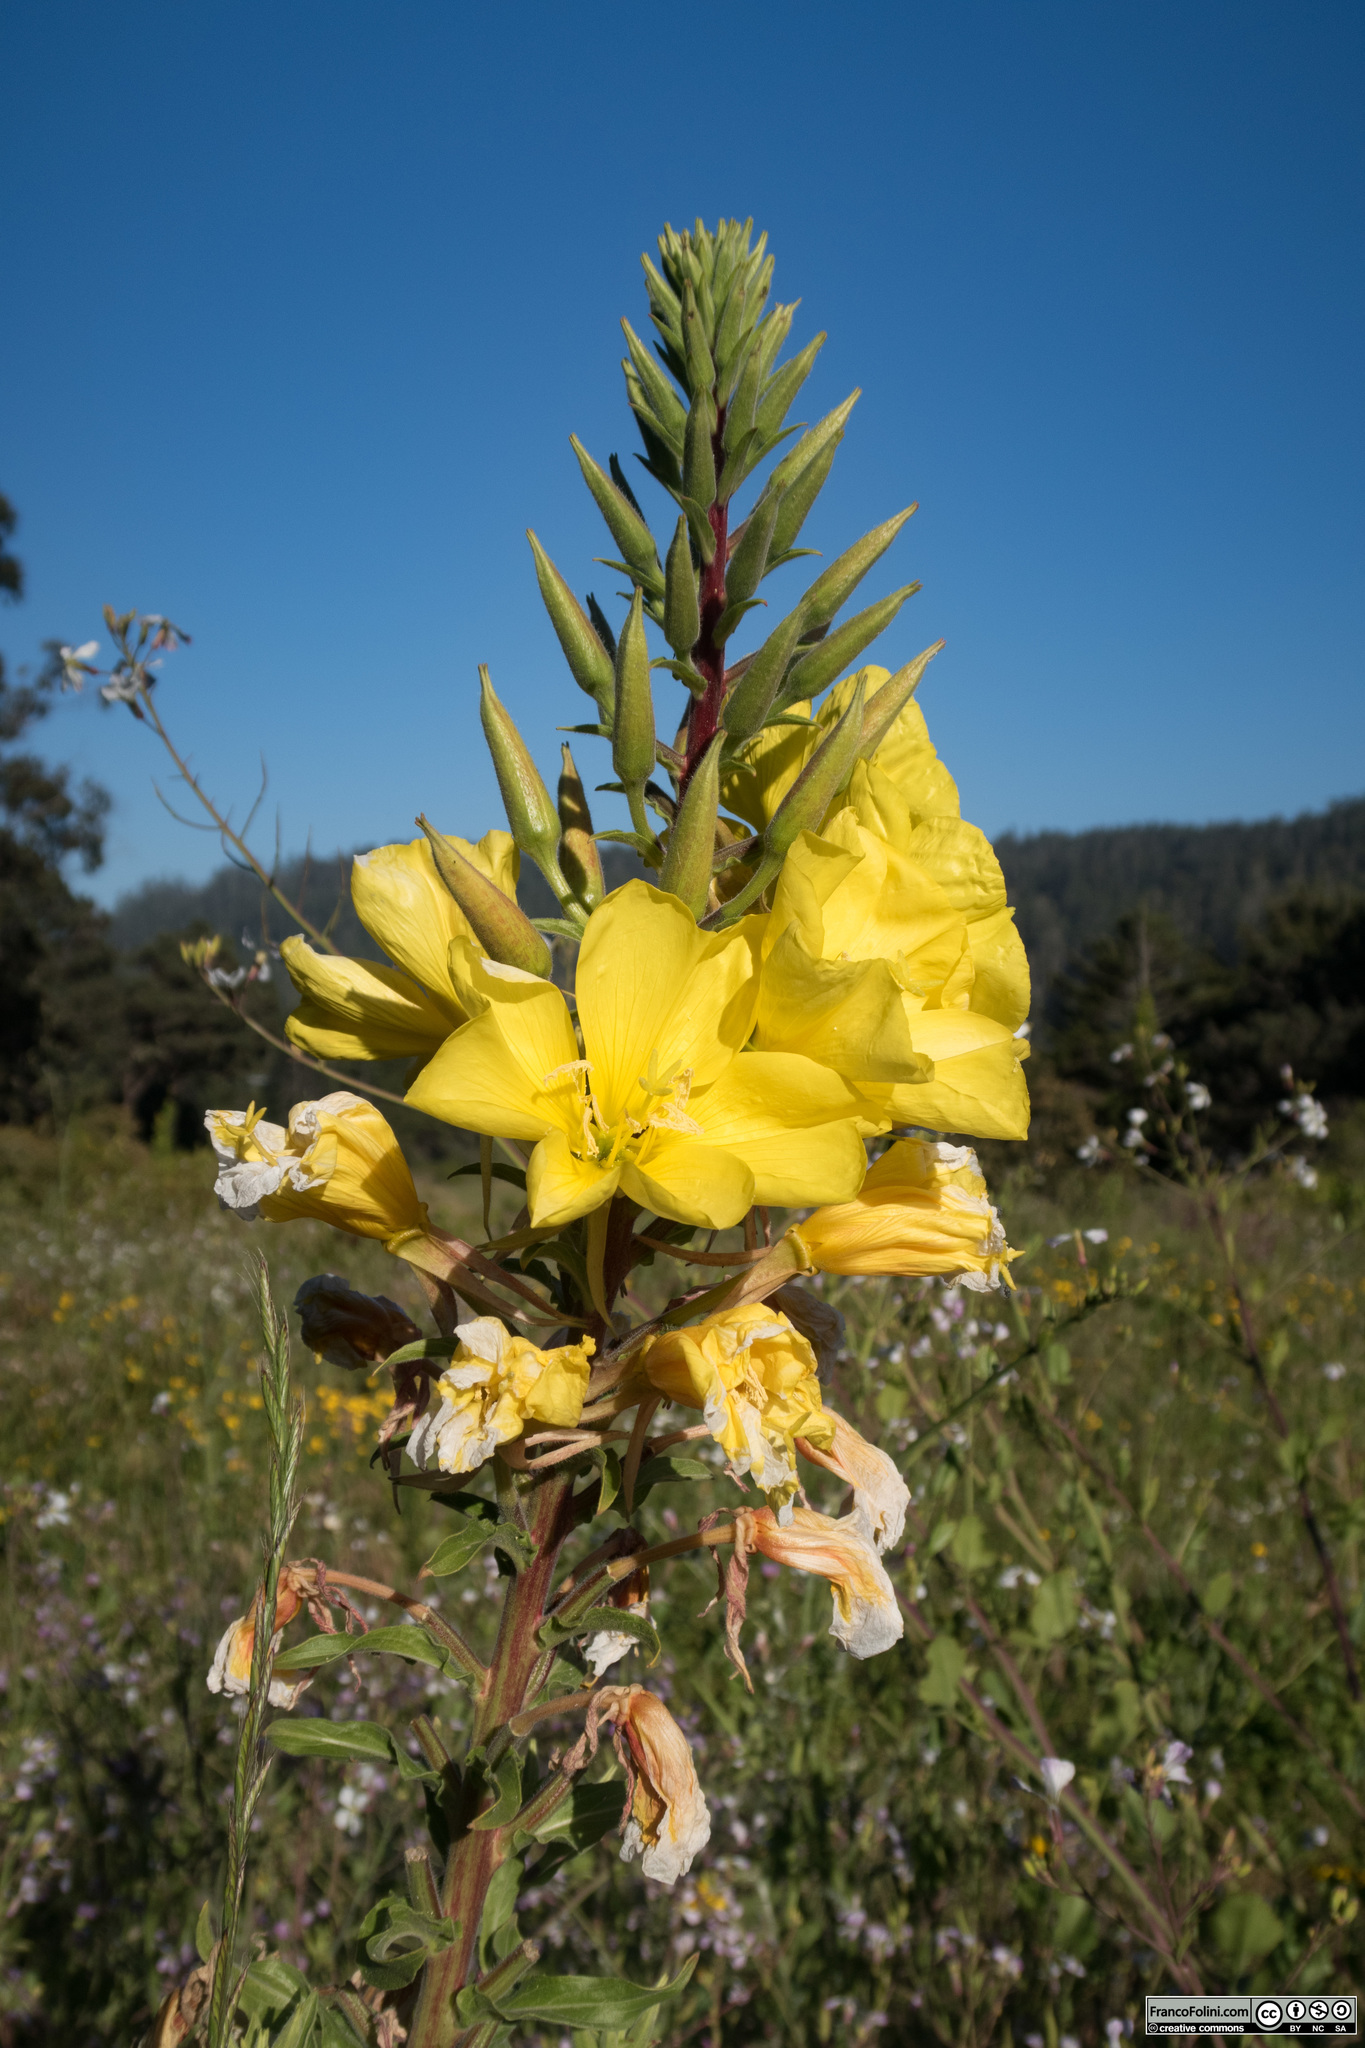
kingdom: Plantae
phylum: Tracheophyta
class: Magnoliopsida
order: Myrtales
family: Onagraceae
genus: Oenothera
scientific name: Oenothera elata
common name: Hooker's evening-primrose
